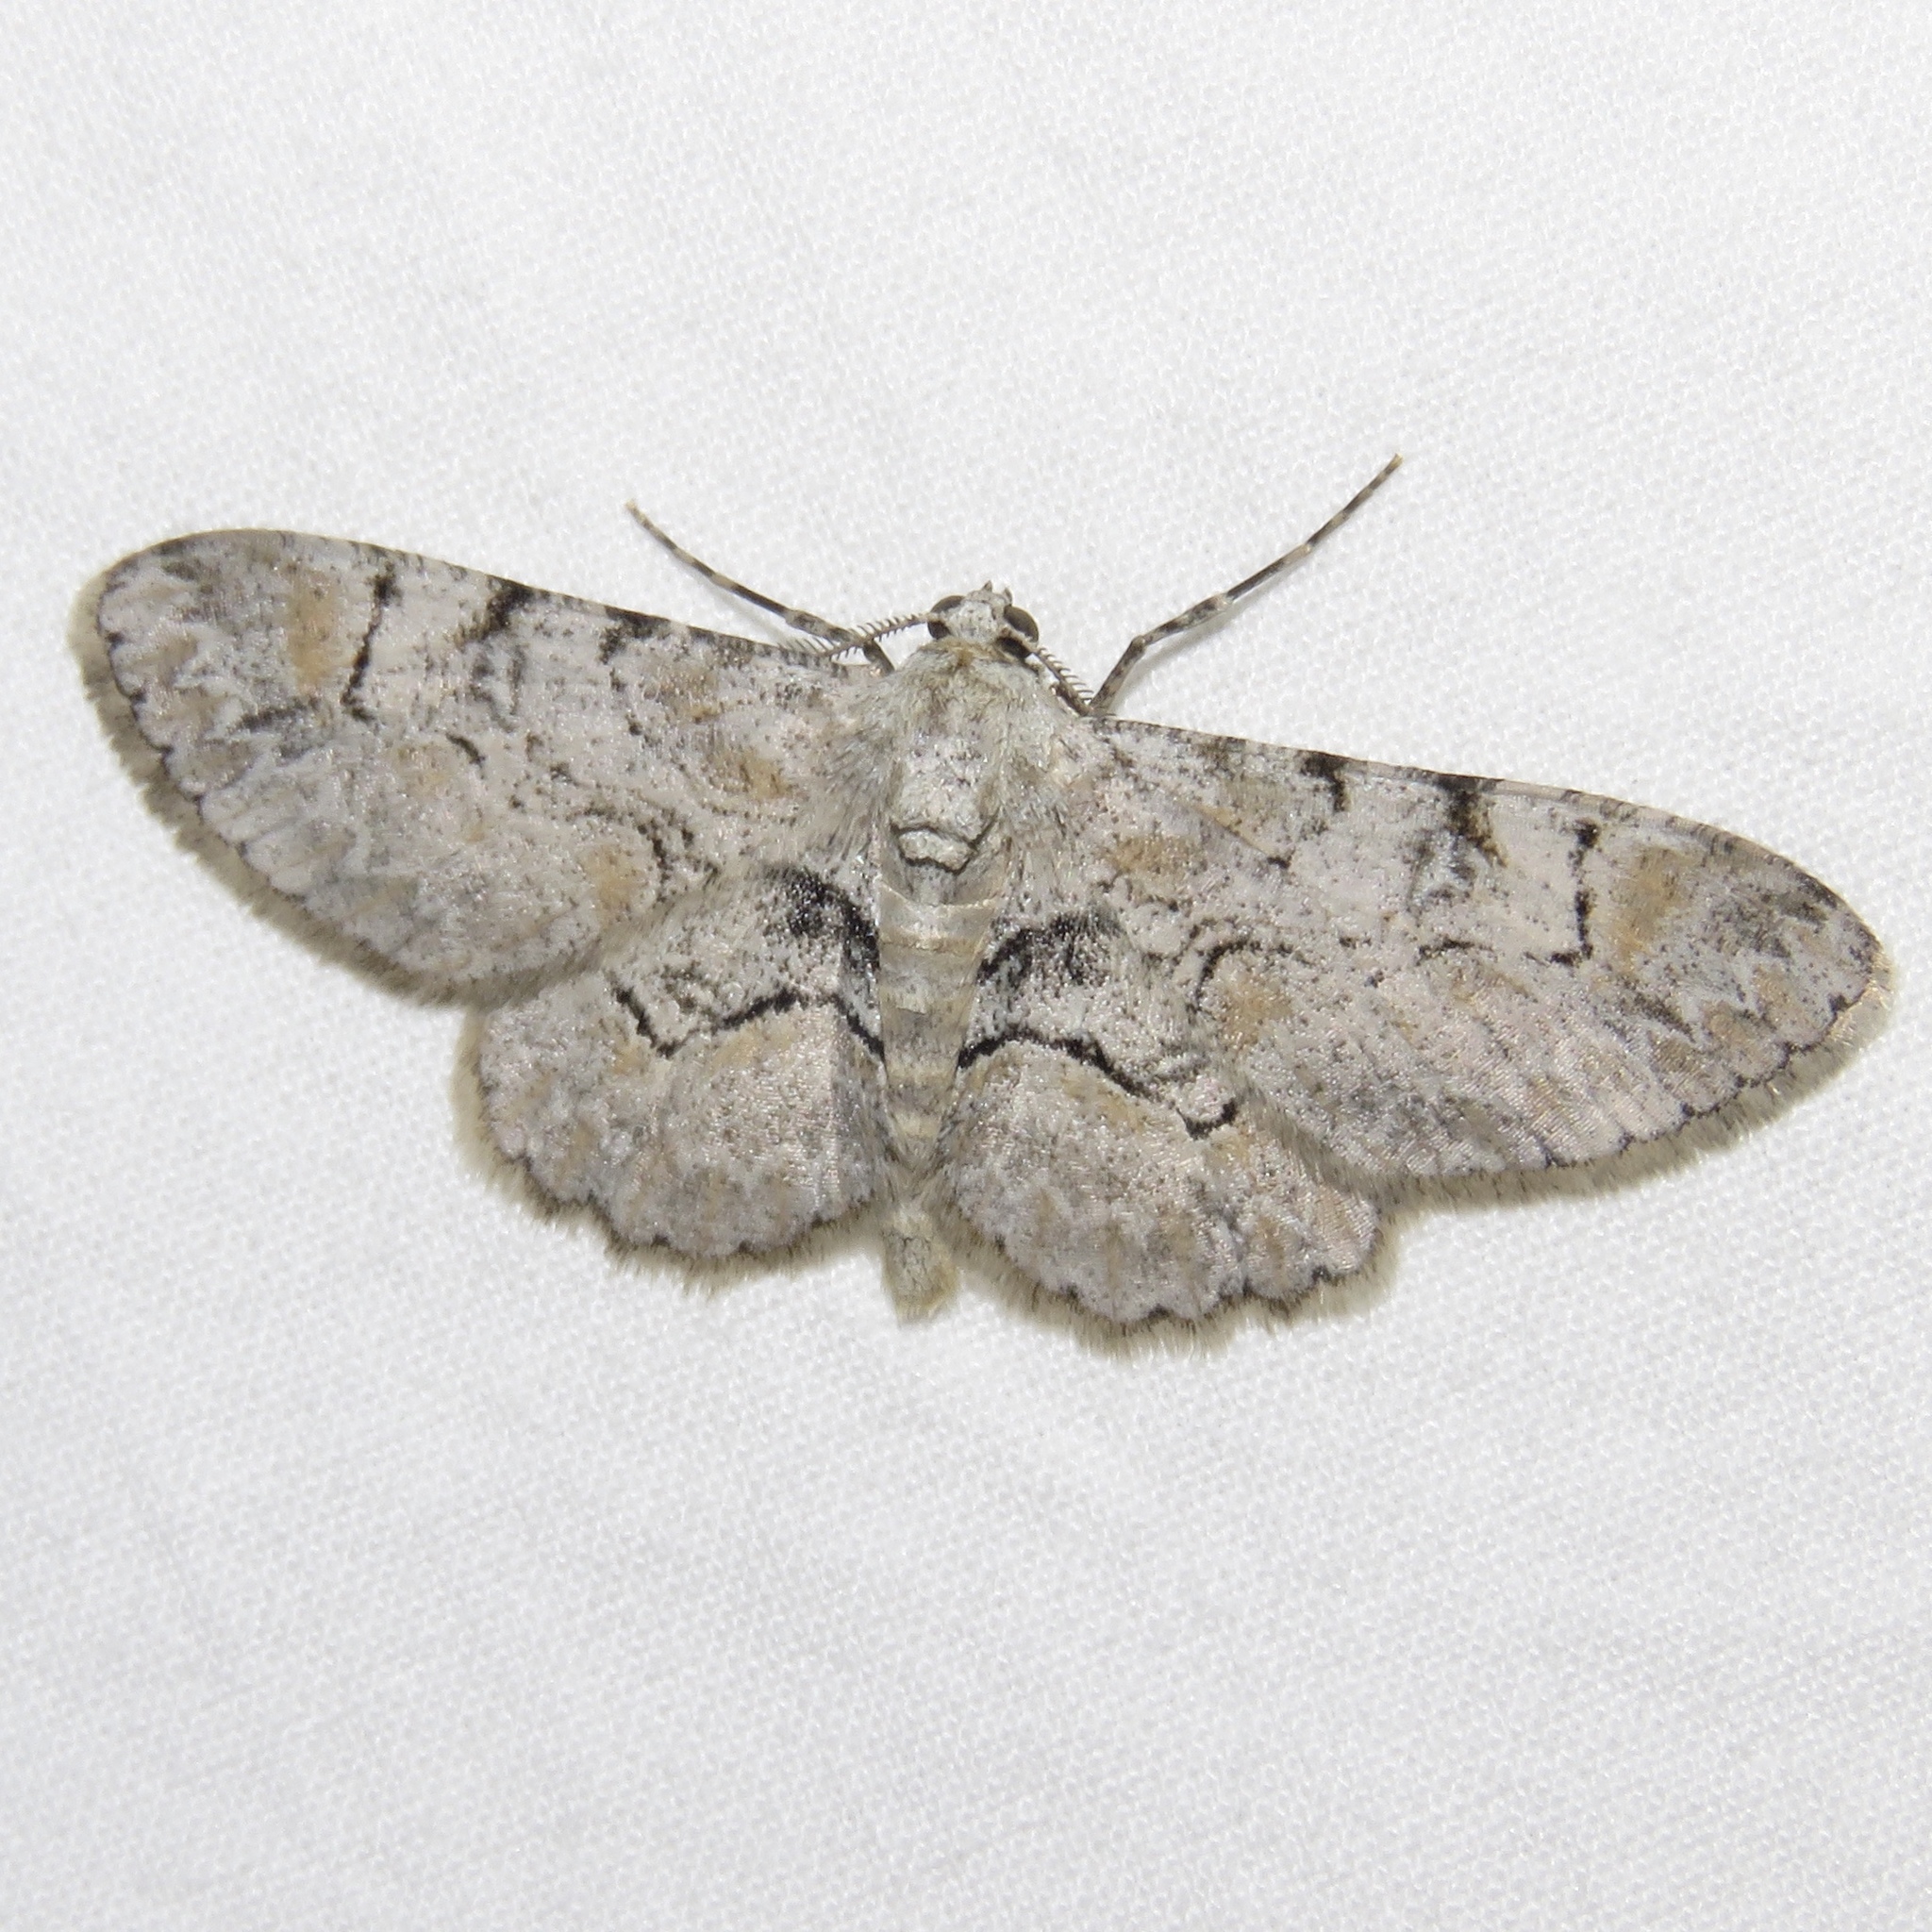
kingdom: Animalia
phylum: Arthropoda
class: Insecta
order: Lepidoptera
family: Geometridae
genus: Iridopsis
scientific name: Iridopsis larvaria
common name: Bent-line gray
